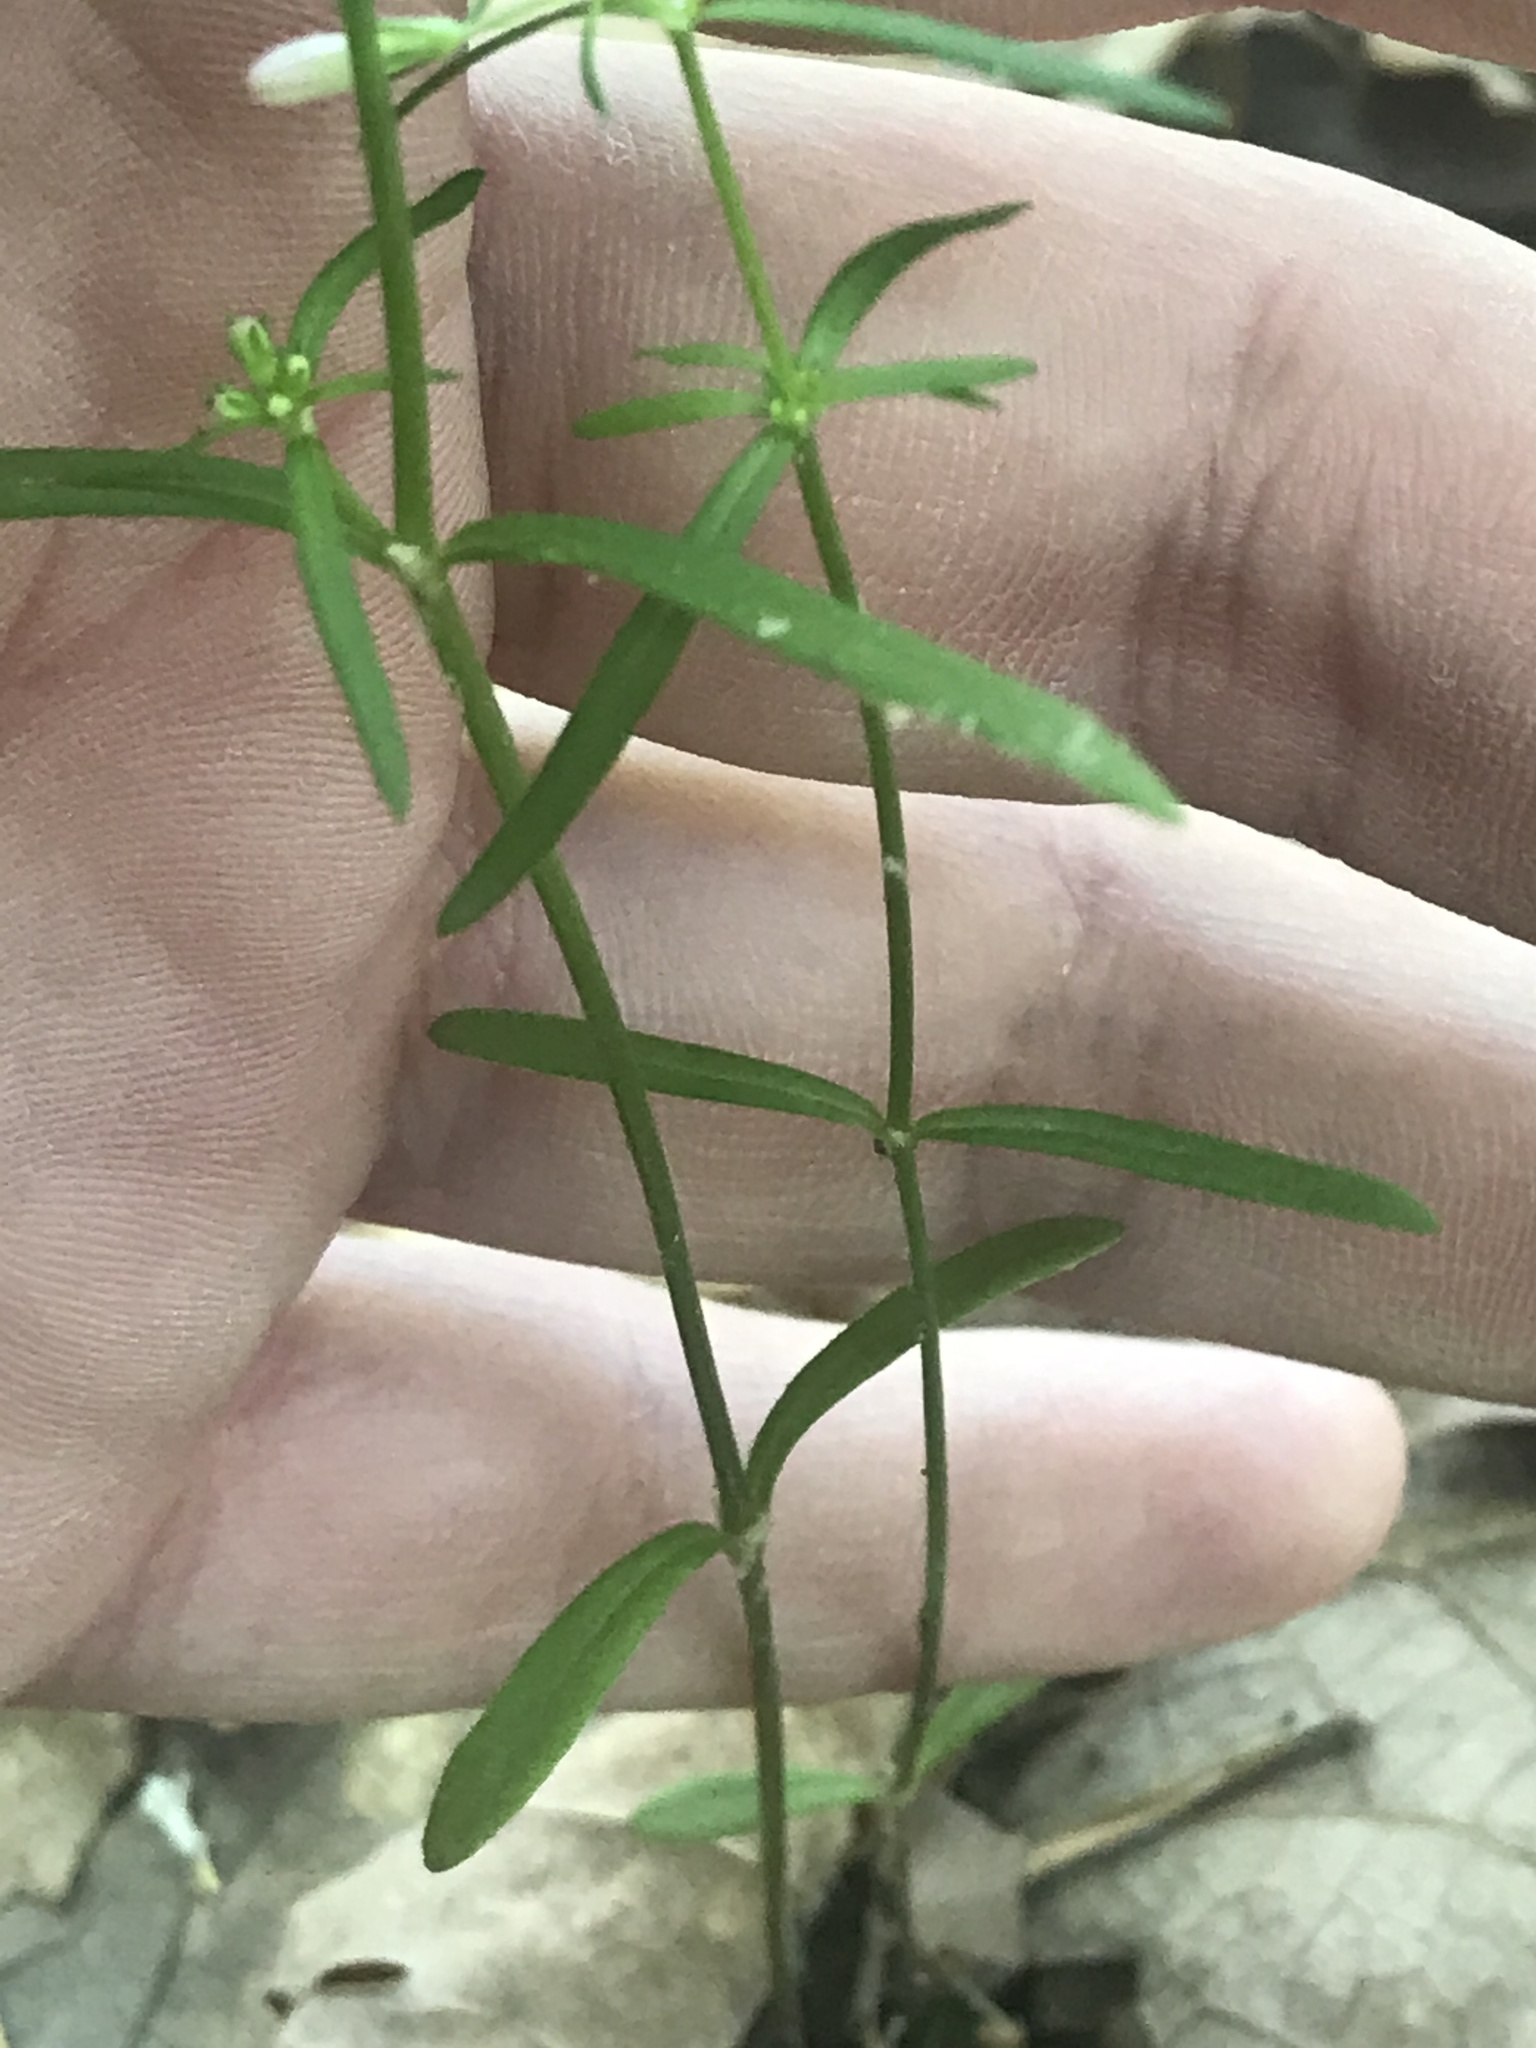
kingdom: Plantae
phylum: Tracheophyta
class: Magnoliopsida
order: Gentianales
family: Rubiaceae
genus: Houstonia
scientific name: Houstonia longifolia
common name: Long-leaved bluets
